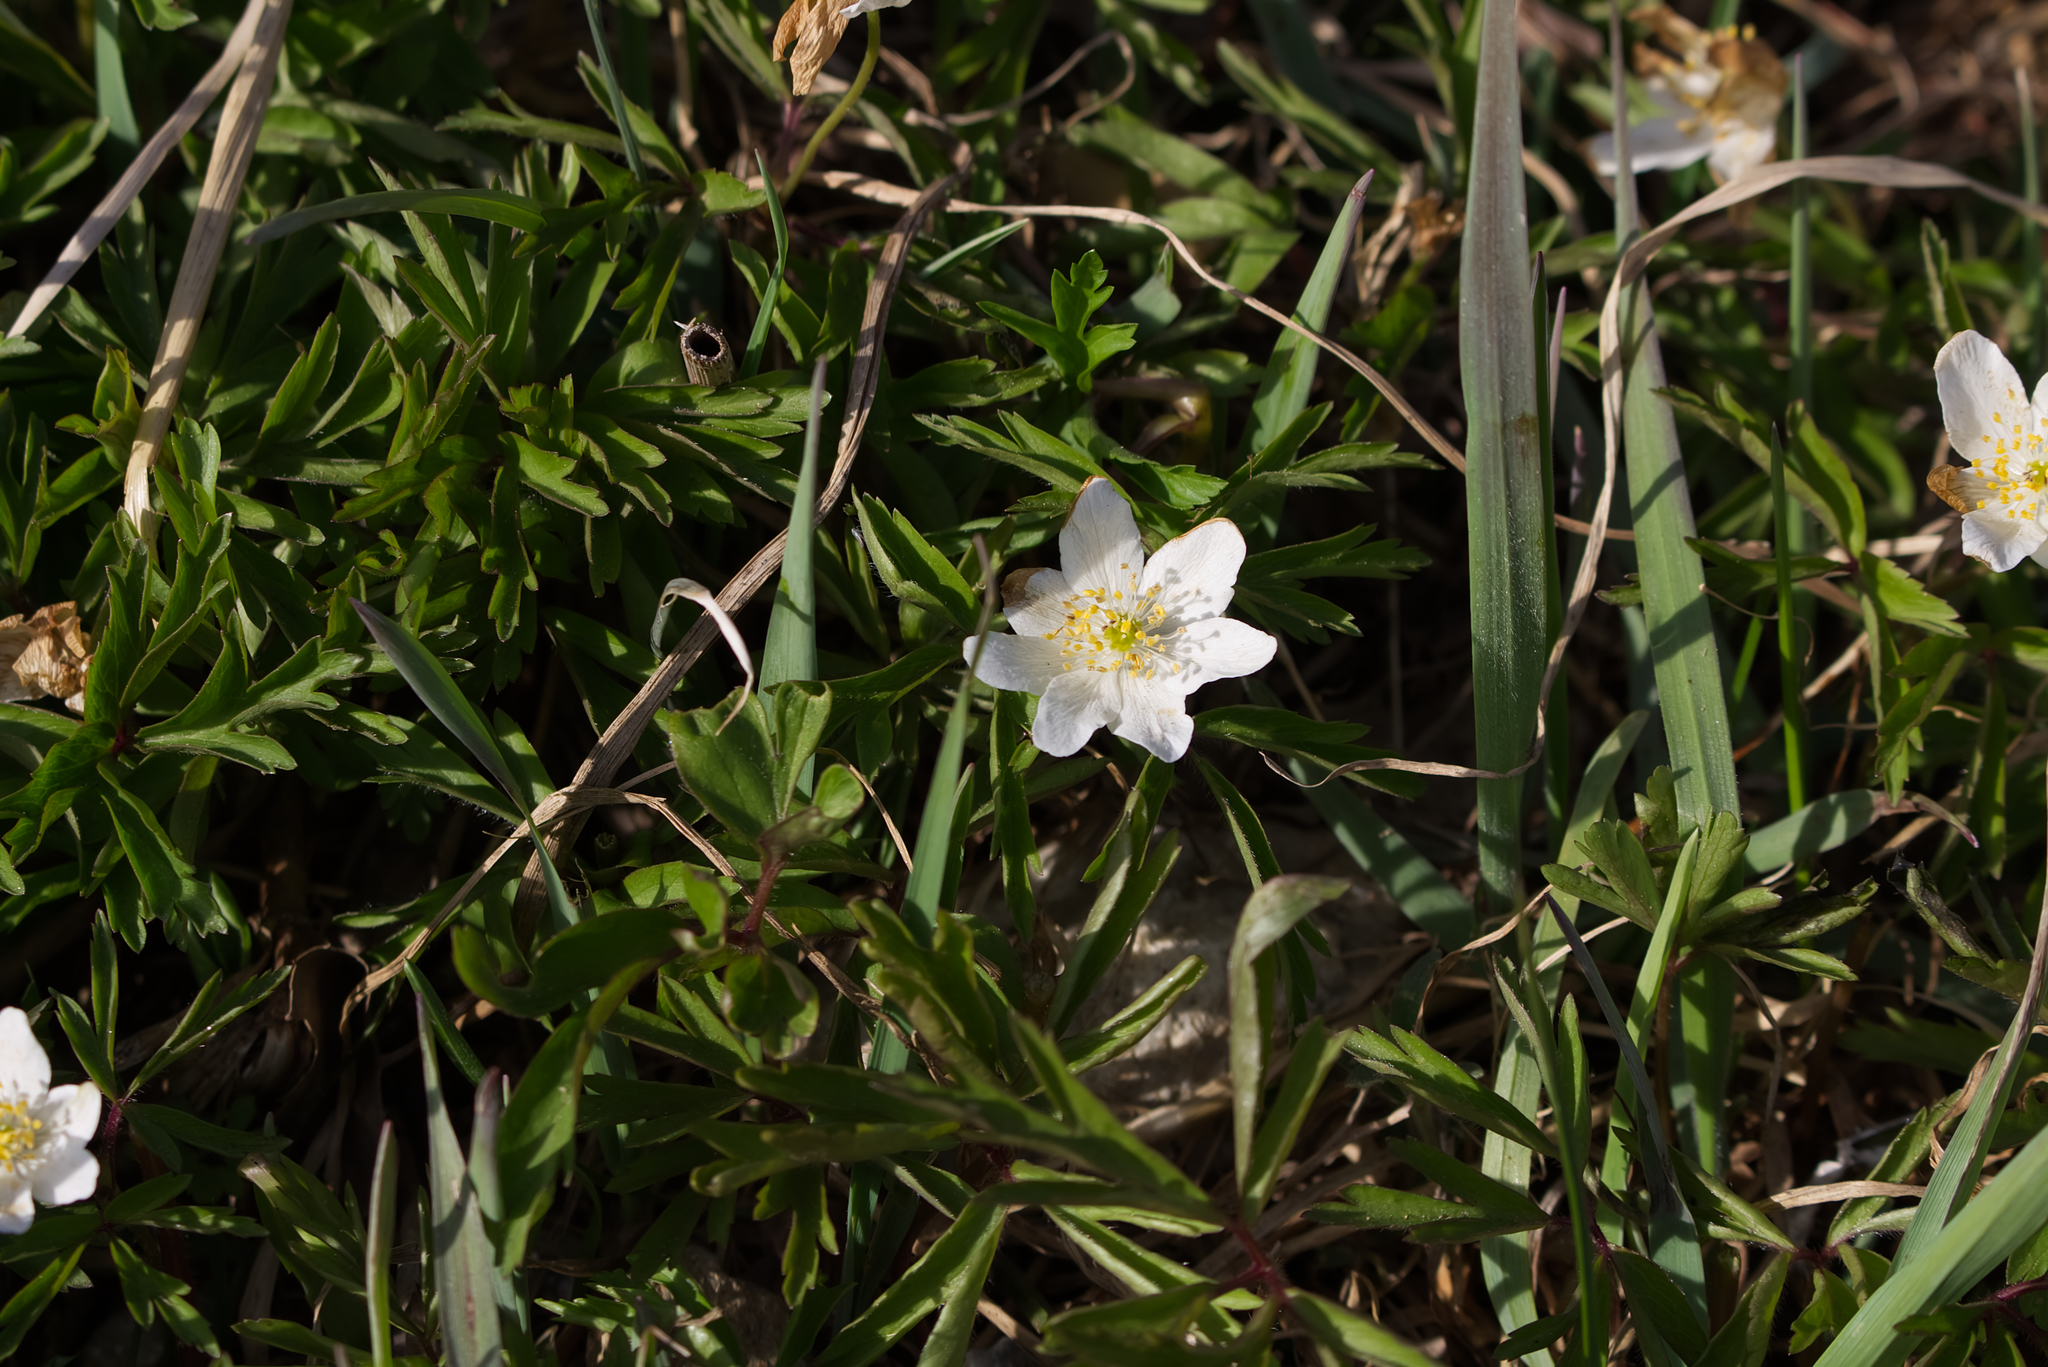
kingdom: Plantae
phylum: Tracheophyta
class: Magnoliopsida
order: Ranunculales
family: Ranunculaceae
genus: Anemone
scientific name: Anemone nemorosa
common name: Wood anemone
